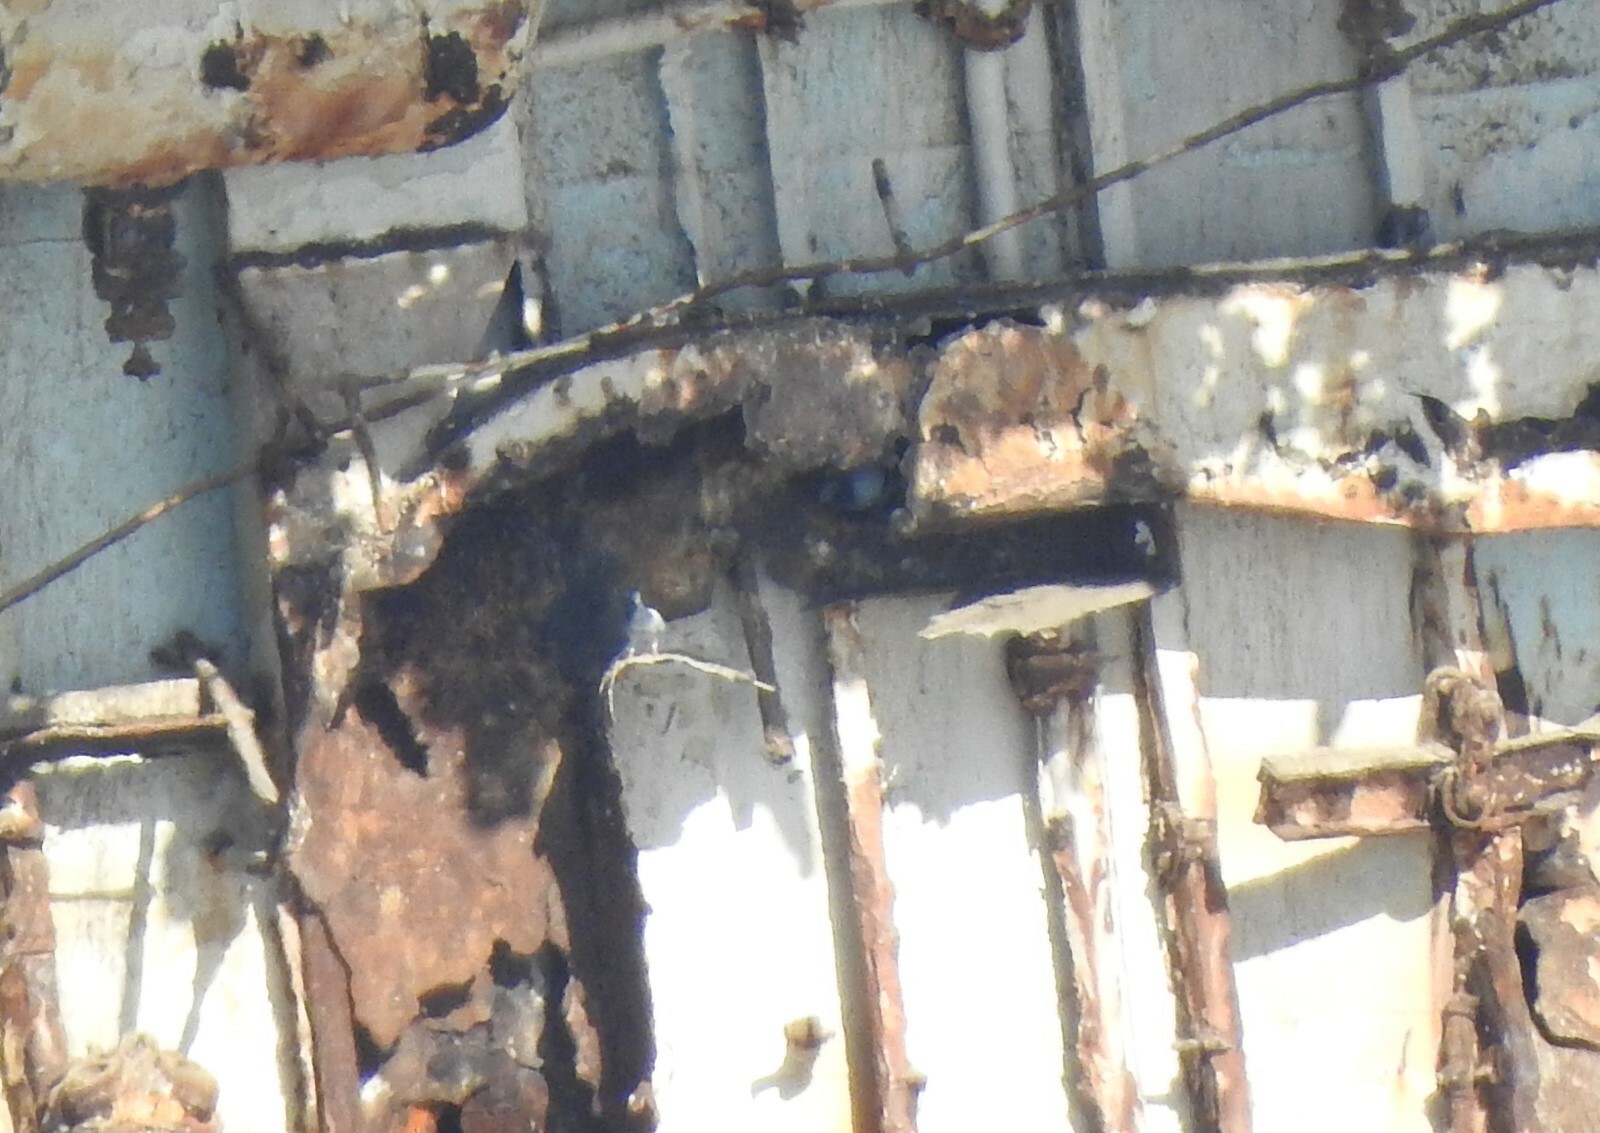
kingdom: Animalia
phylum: Chordata
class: Aves
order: Columbiformes
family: Columbidae
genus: Columba
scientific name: Columba livia
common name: Rock pigeon
